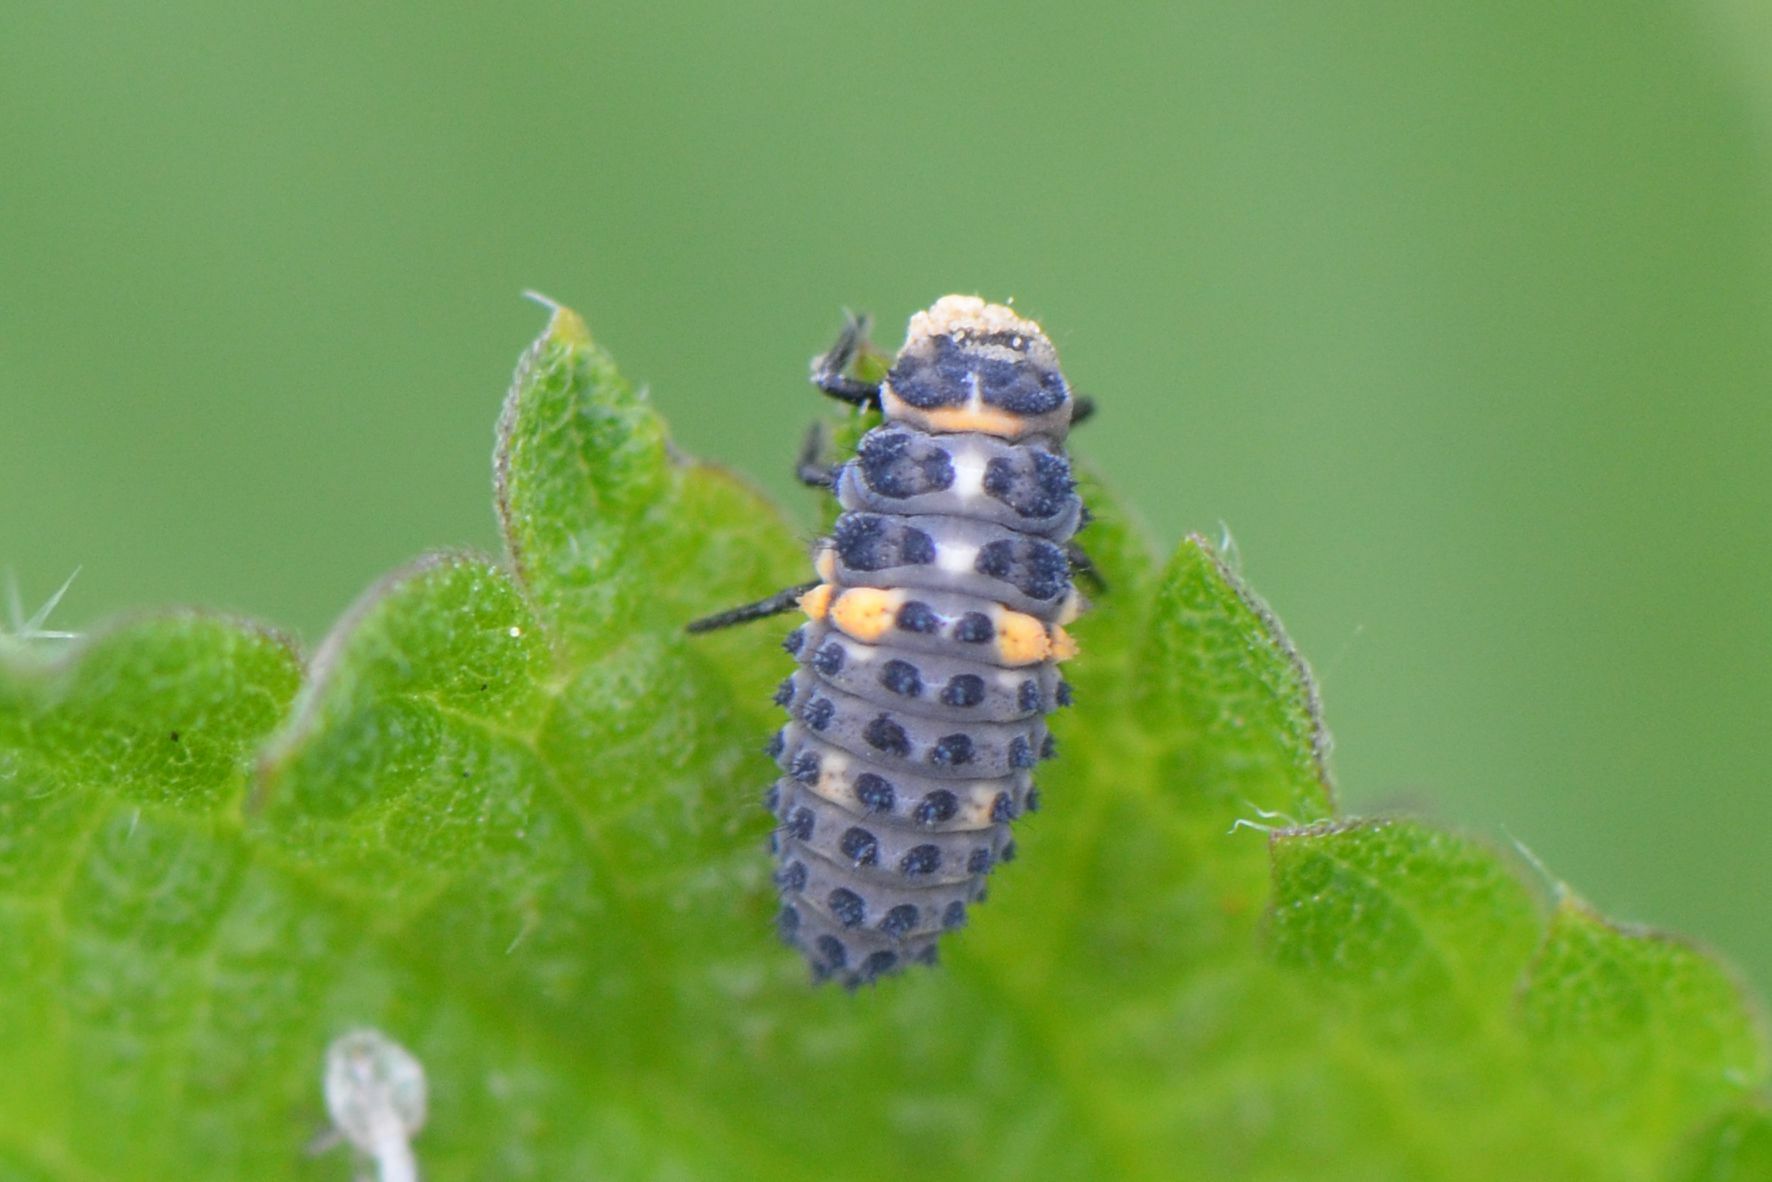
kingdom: Animalia
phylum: Arthropoda
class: Insecta
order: Coleoptera
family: Coccinellidae
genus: Hippodamia
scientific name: Hippodamia variegata
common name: Ladybird beetle
